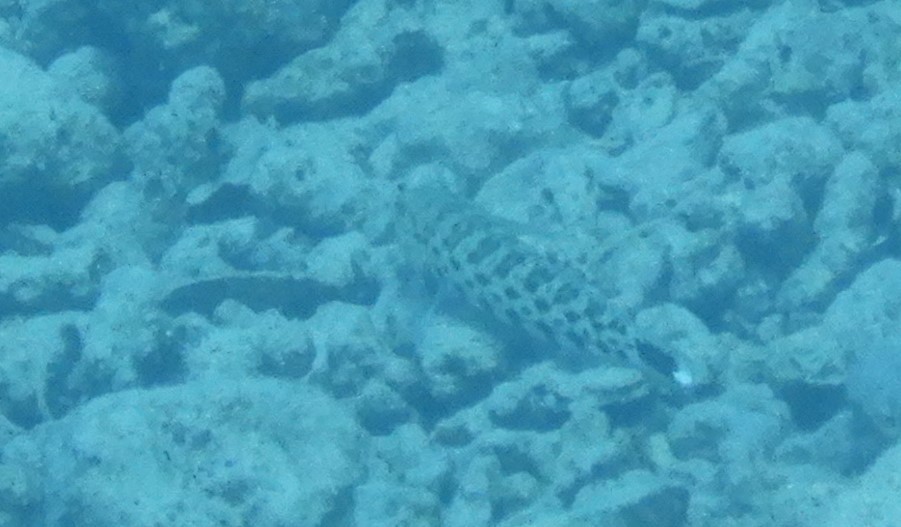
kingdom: Animalia
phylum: Chordata
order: Perciformes
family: Pinguipedidae
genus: Parapercis
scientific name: Parapercis hexophtalma
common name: Speckled sandperch
